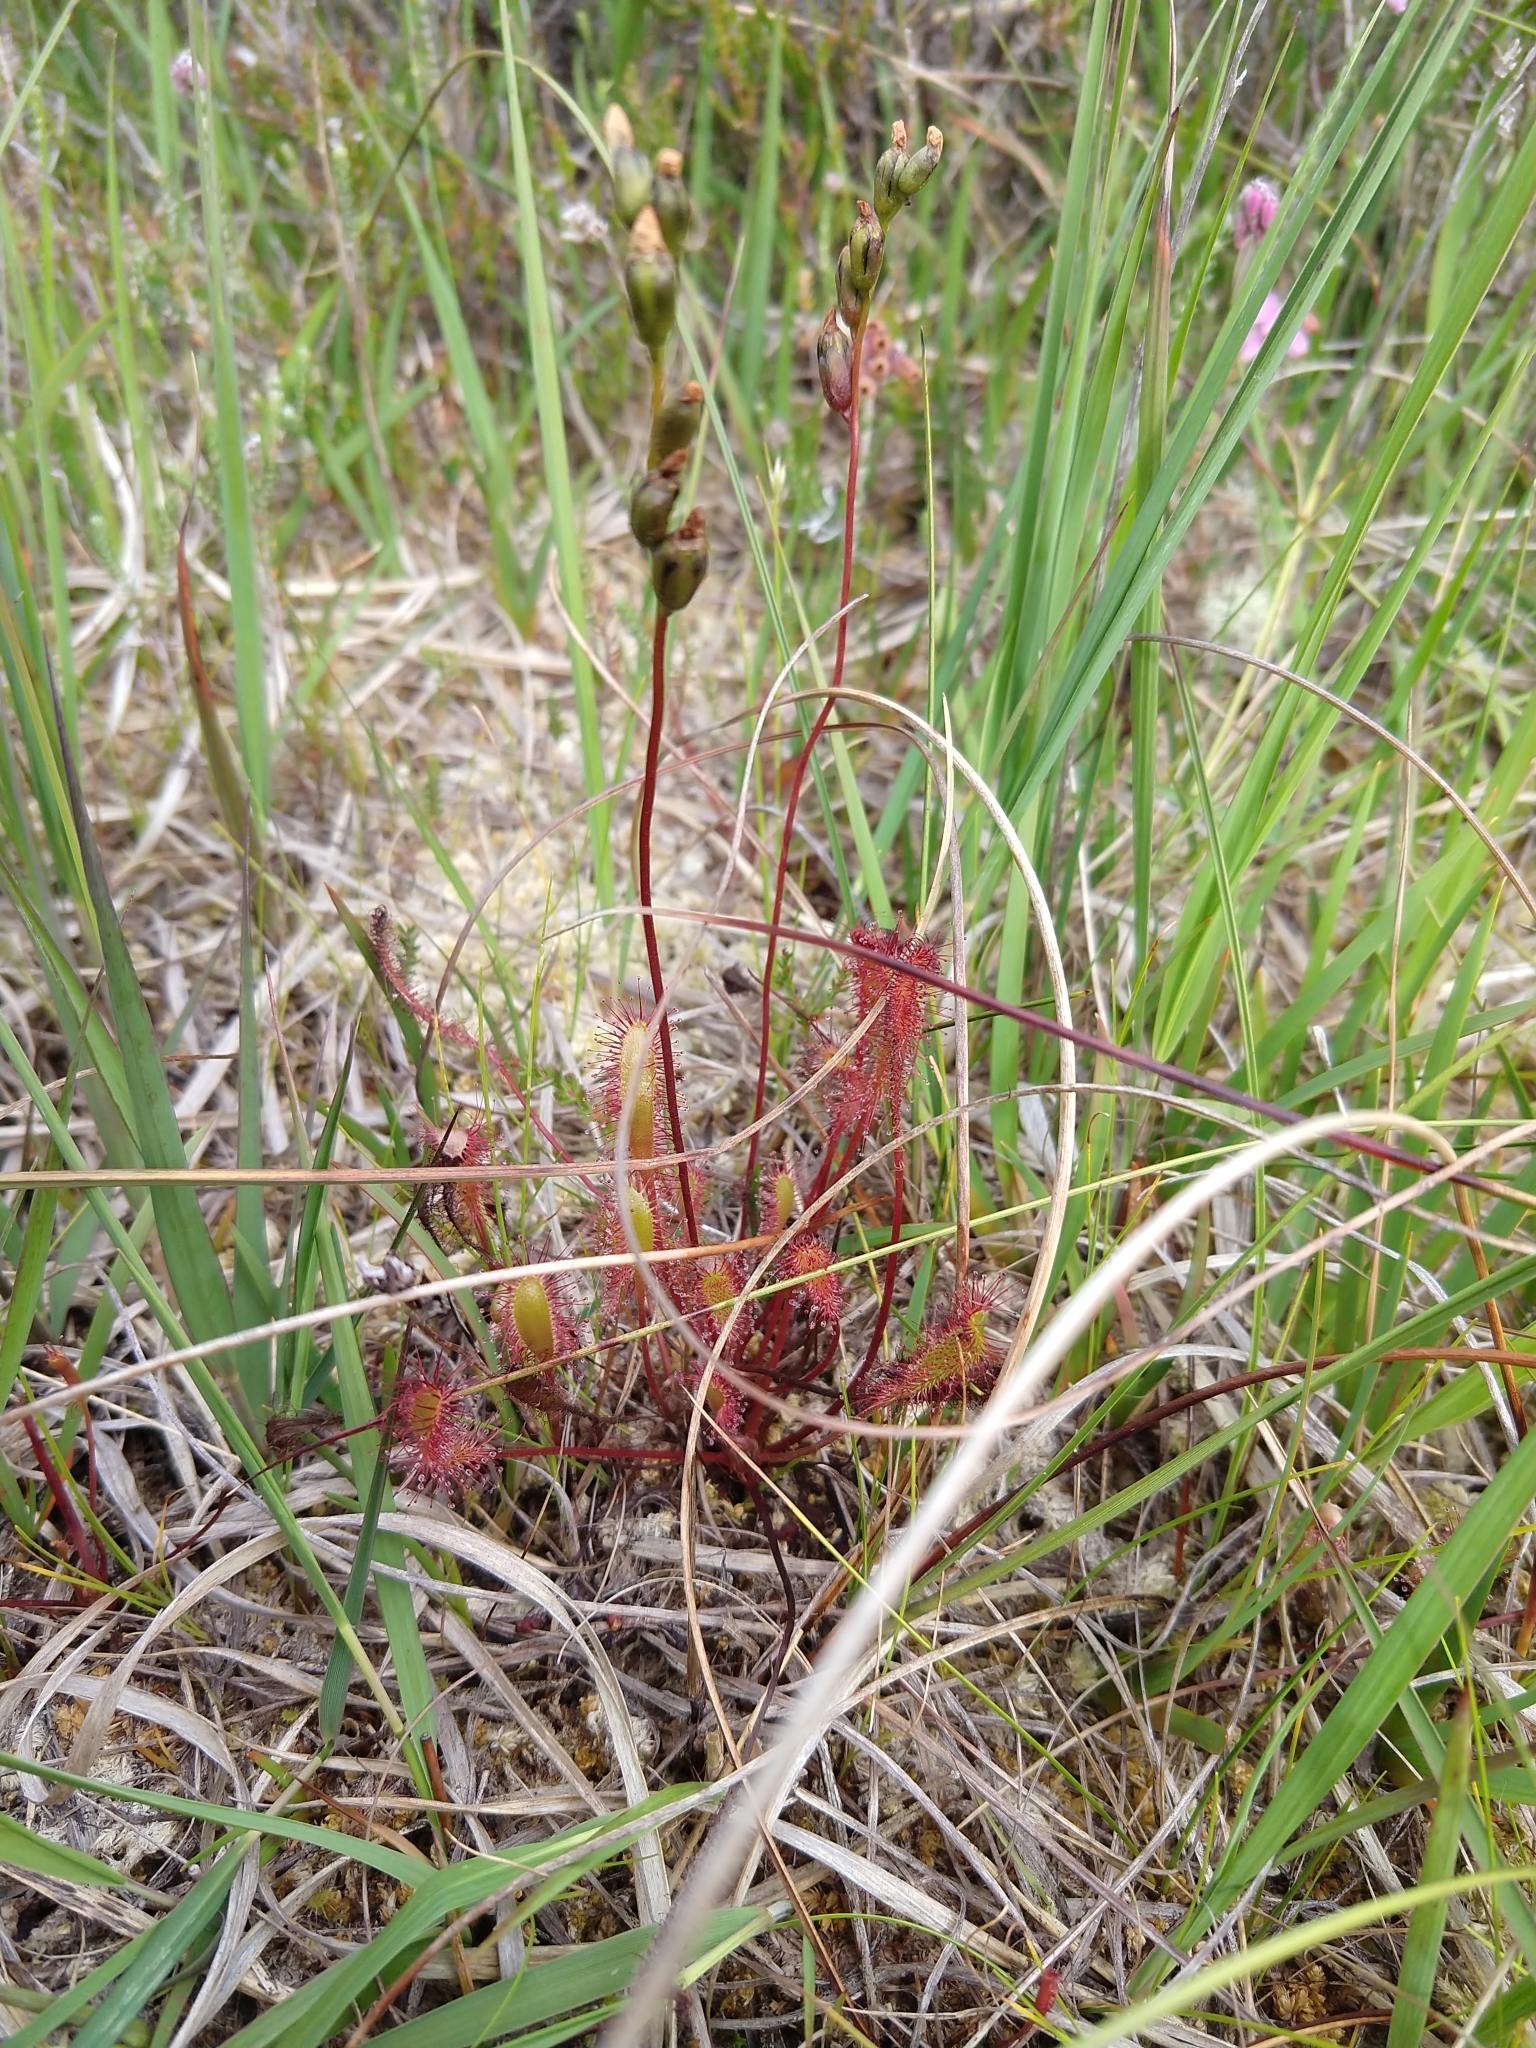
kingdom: Plantae
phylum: Tracheophyta
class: Magnoliopsida
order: Caryophyllales
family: Droseraceae
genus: Drosera
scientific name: Drosera anglica
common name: Great sundew
